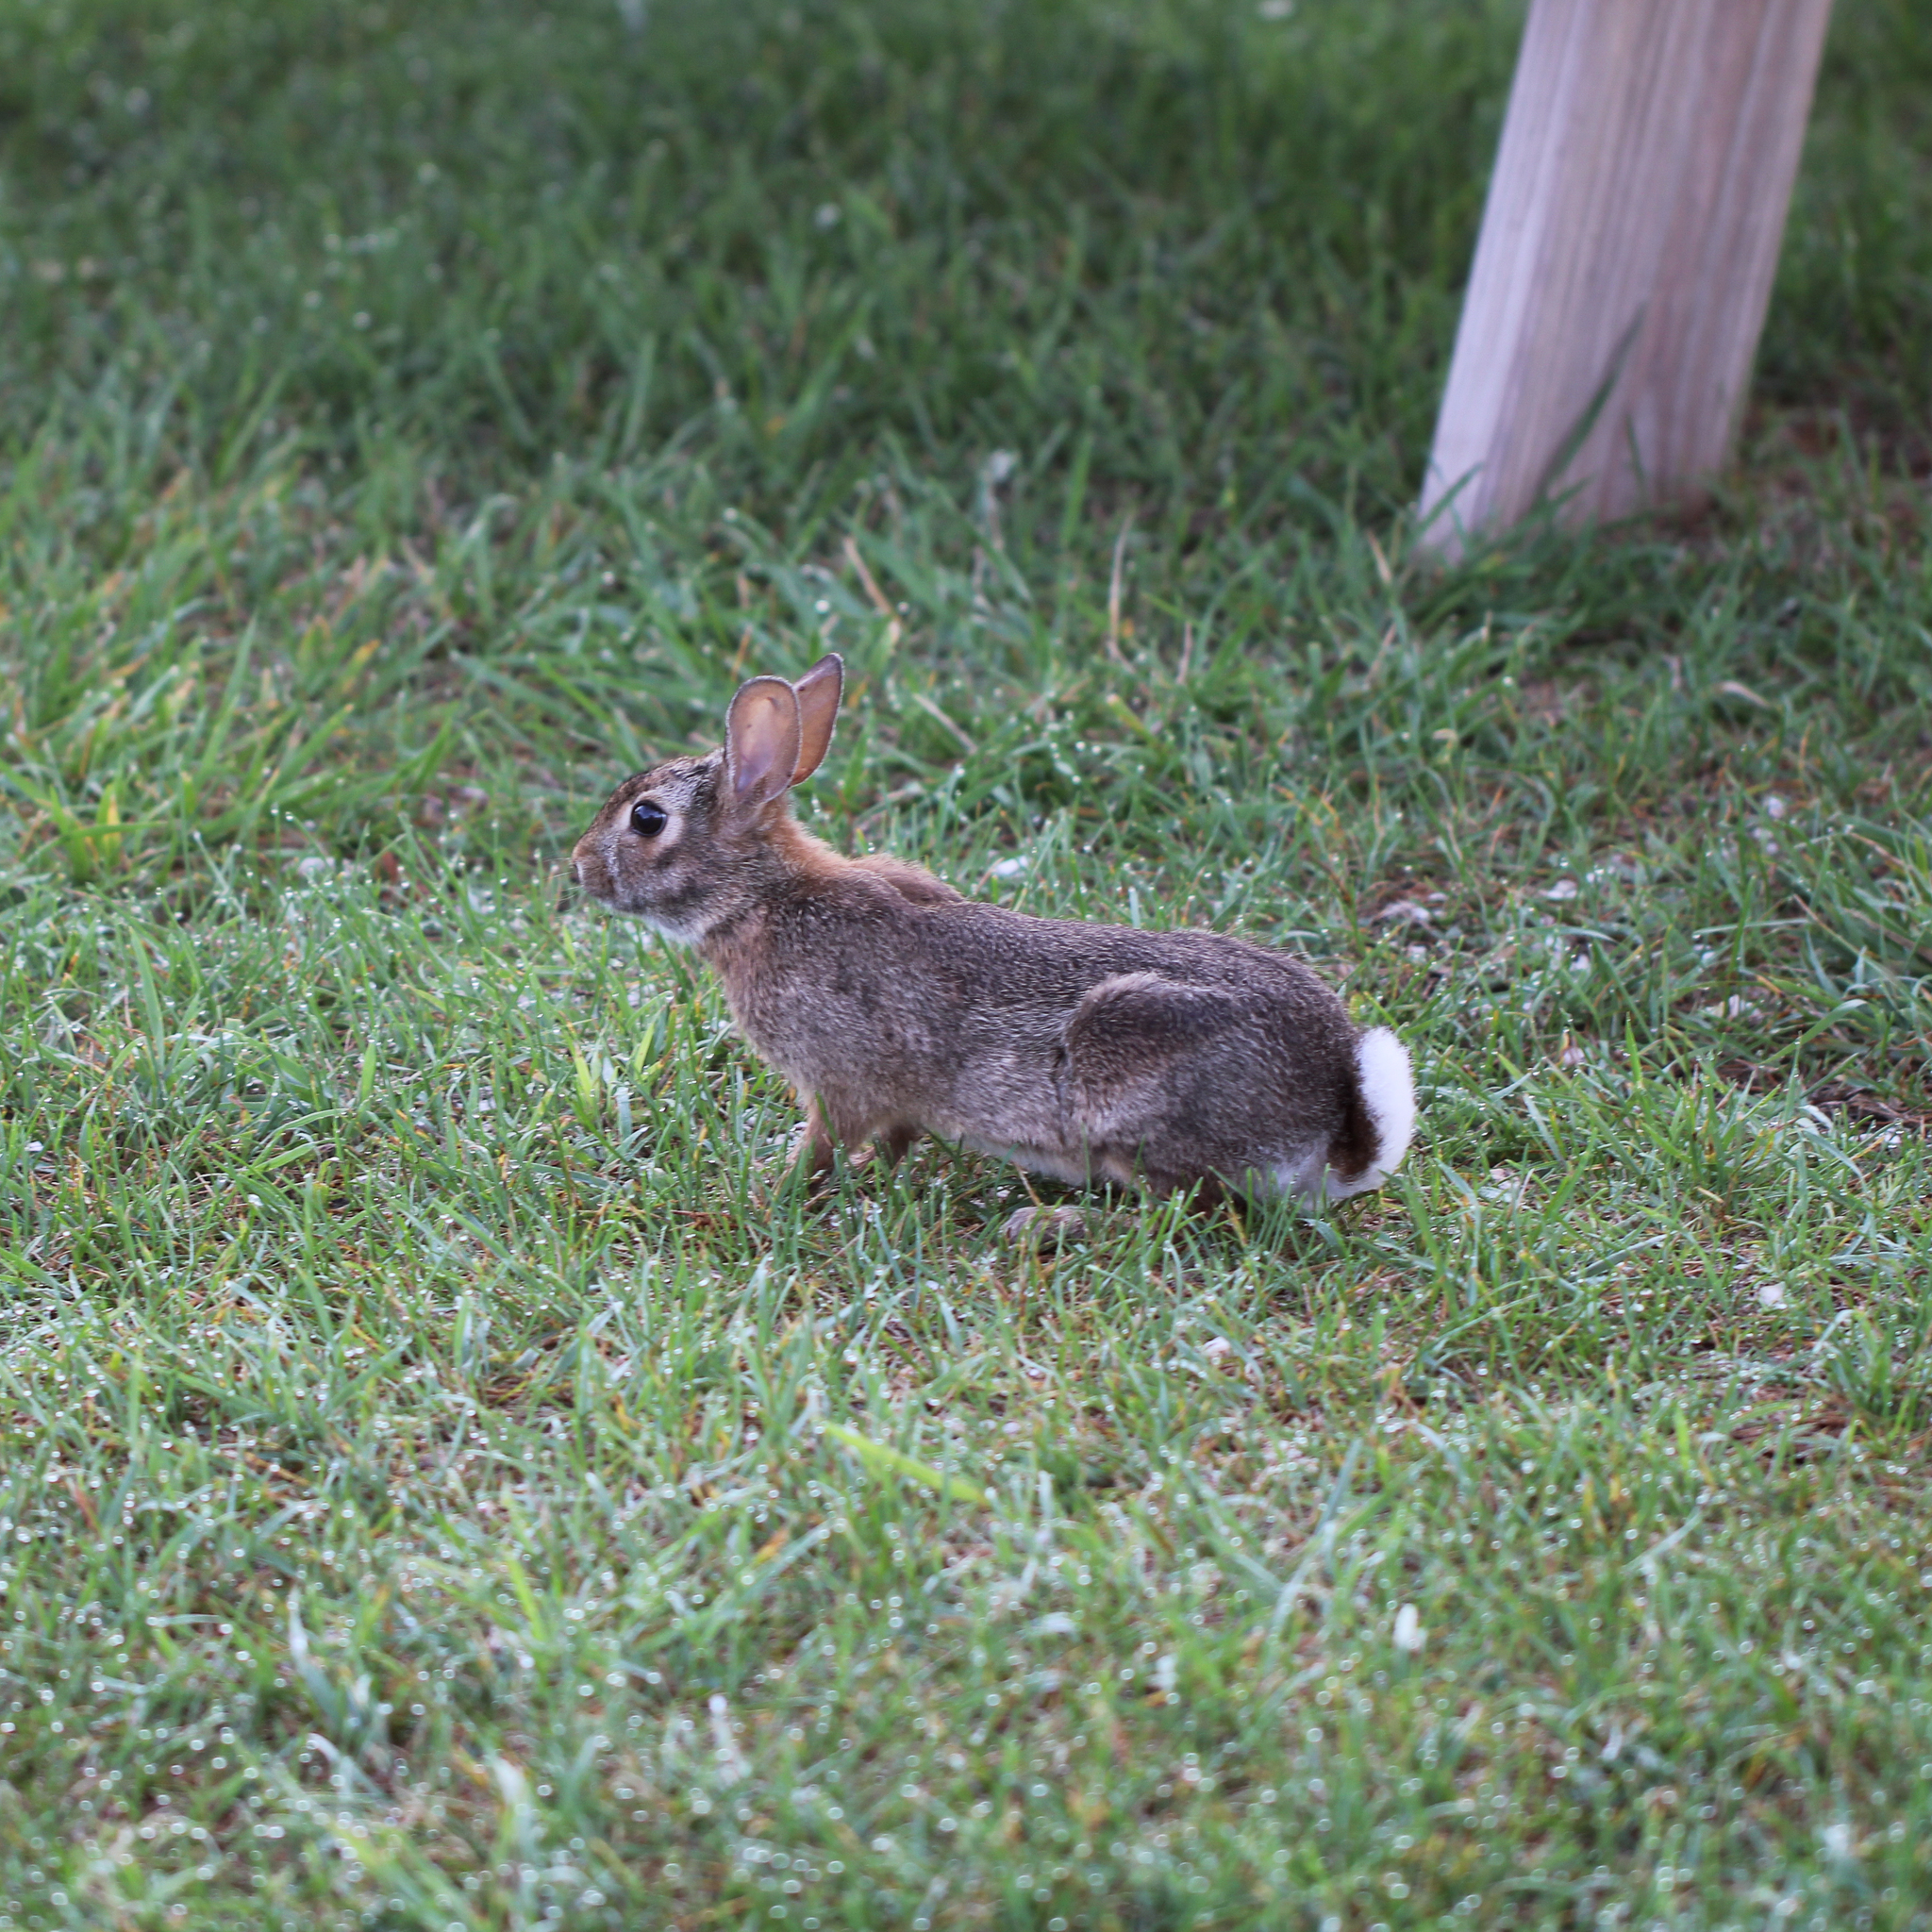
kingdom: Animalia
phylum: Chordata
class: Mammalia
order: Lagomorpha
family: Leporidae
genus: Sylvilagus
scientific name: Sylvilagus floridanus
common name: Eastern cottontail
